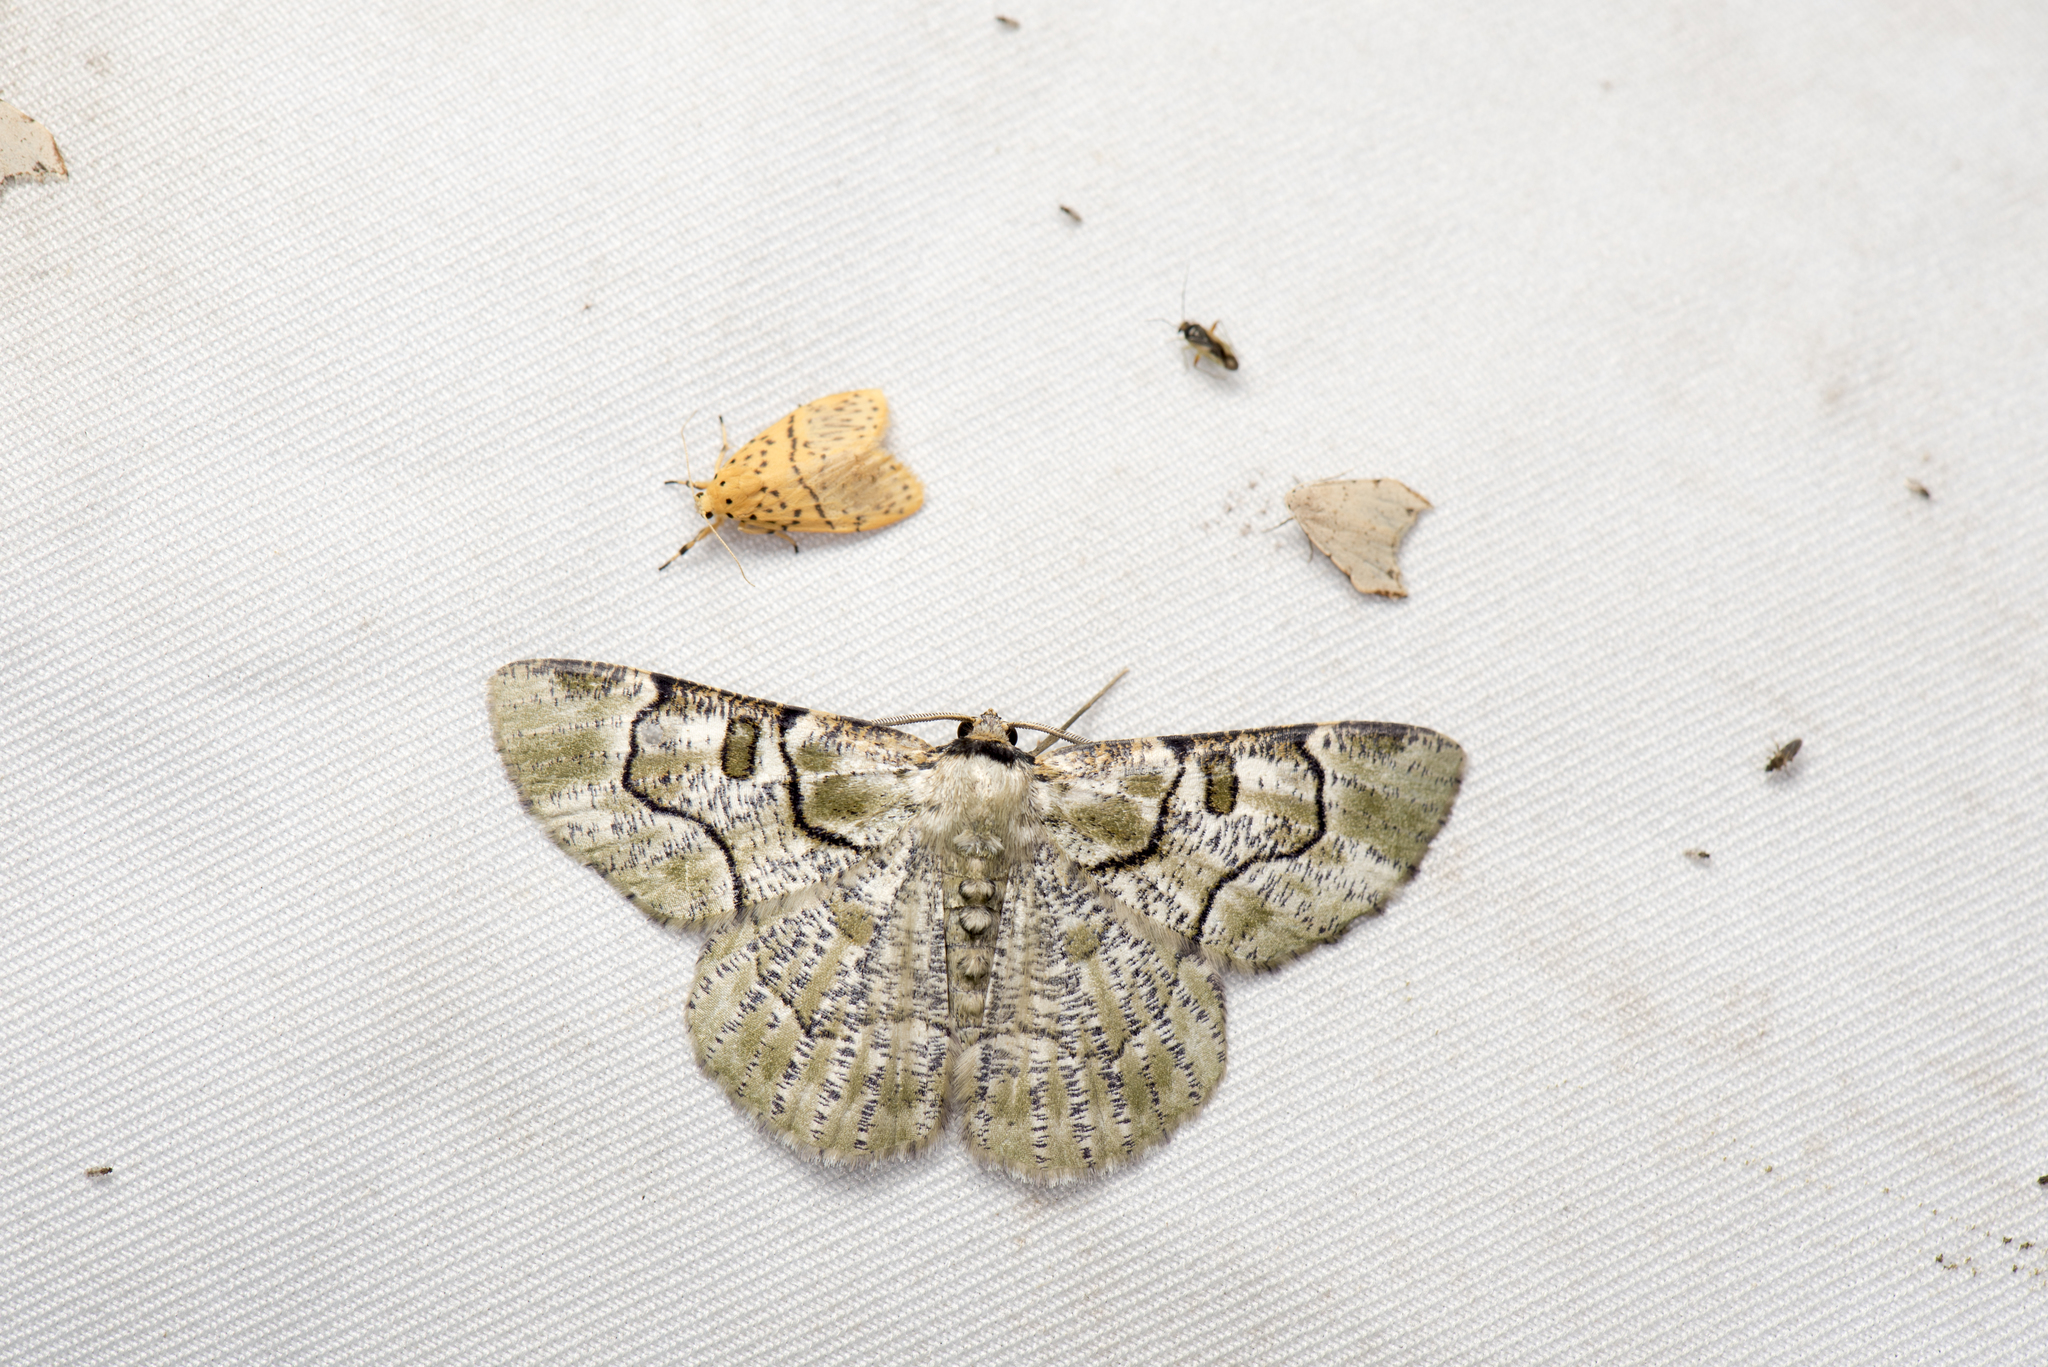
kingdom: Animalia
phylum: Arthropoda
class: Insecta
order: Lepidoptera
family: Geometridae
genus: Metallolophia
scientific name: Metallolophia arenaria
